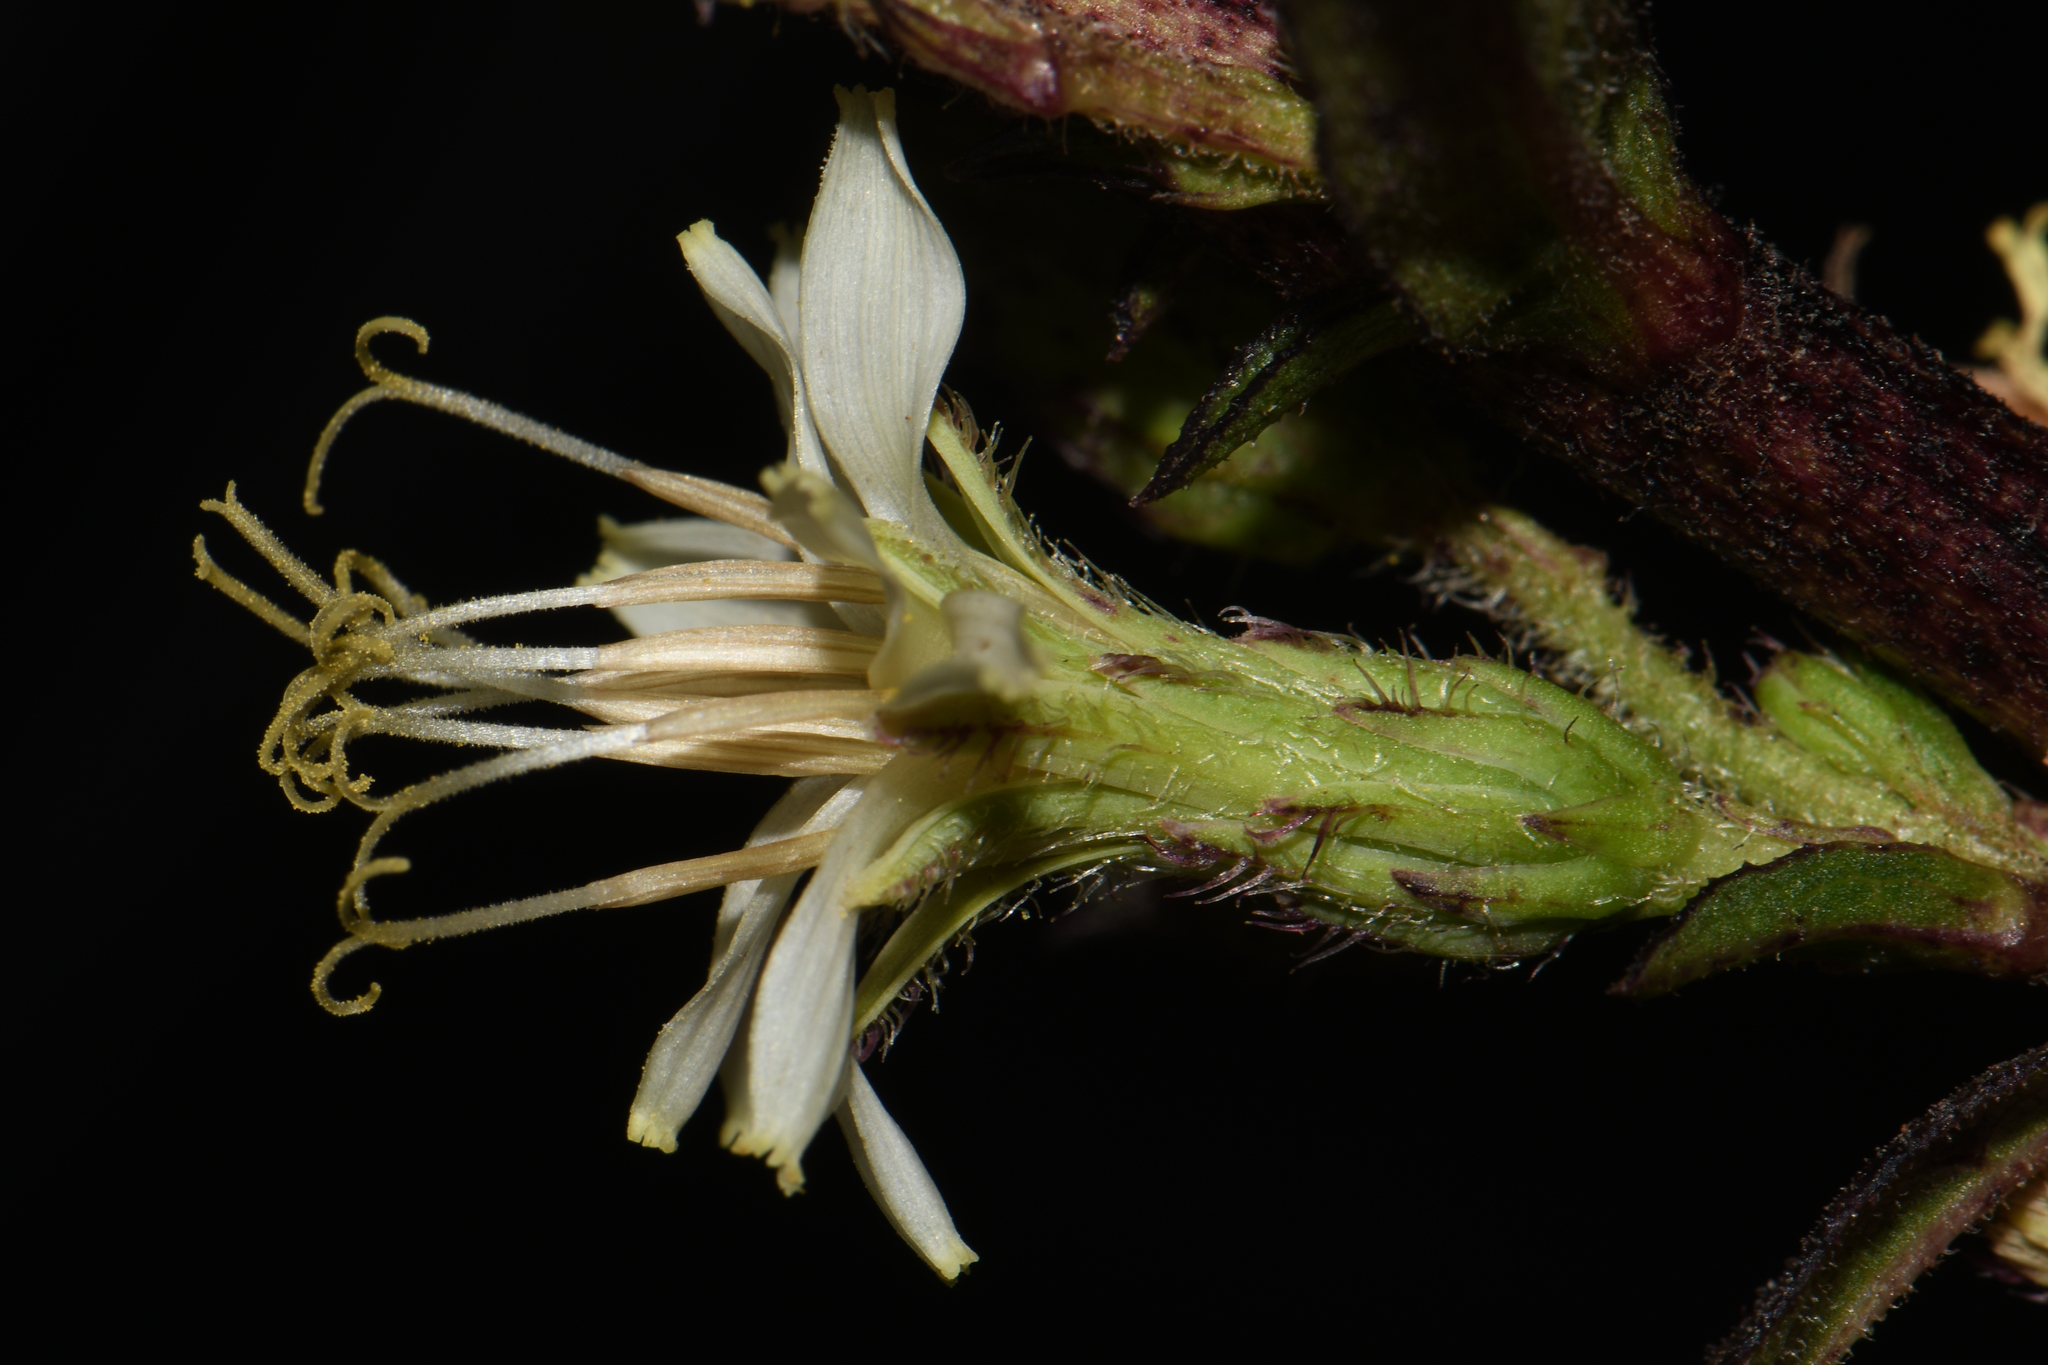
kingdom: Plantae
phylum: Tracheophyta
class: Magnoliopsida
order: Asterales
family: Asteraceae
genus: Nabalus
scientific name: Nabalus asper
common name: Rough rattlesnakeroot
